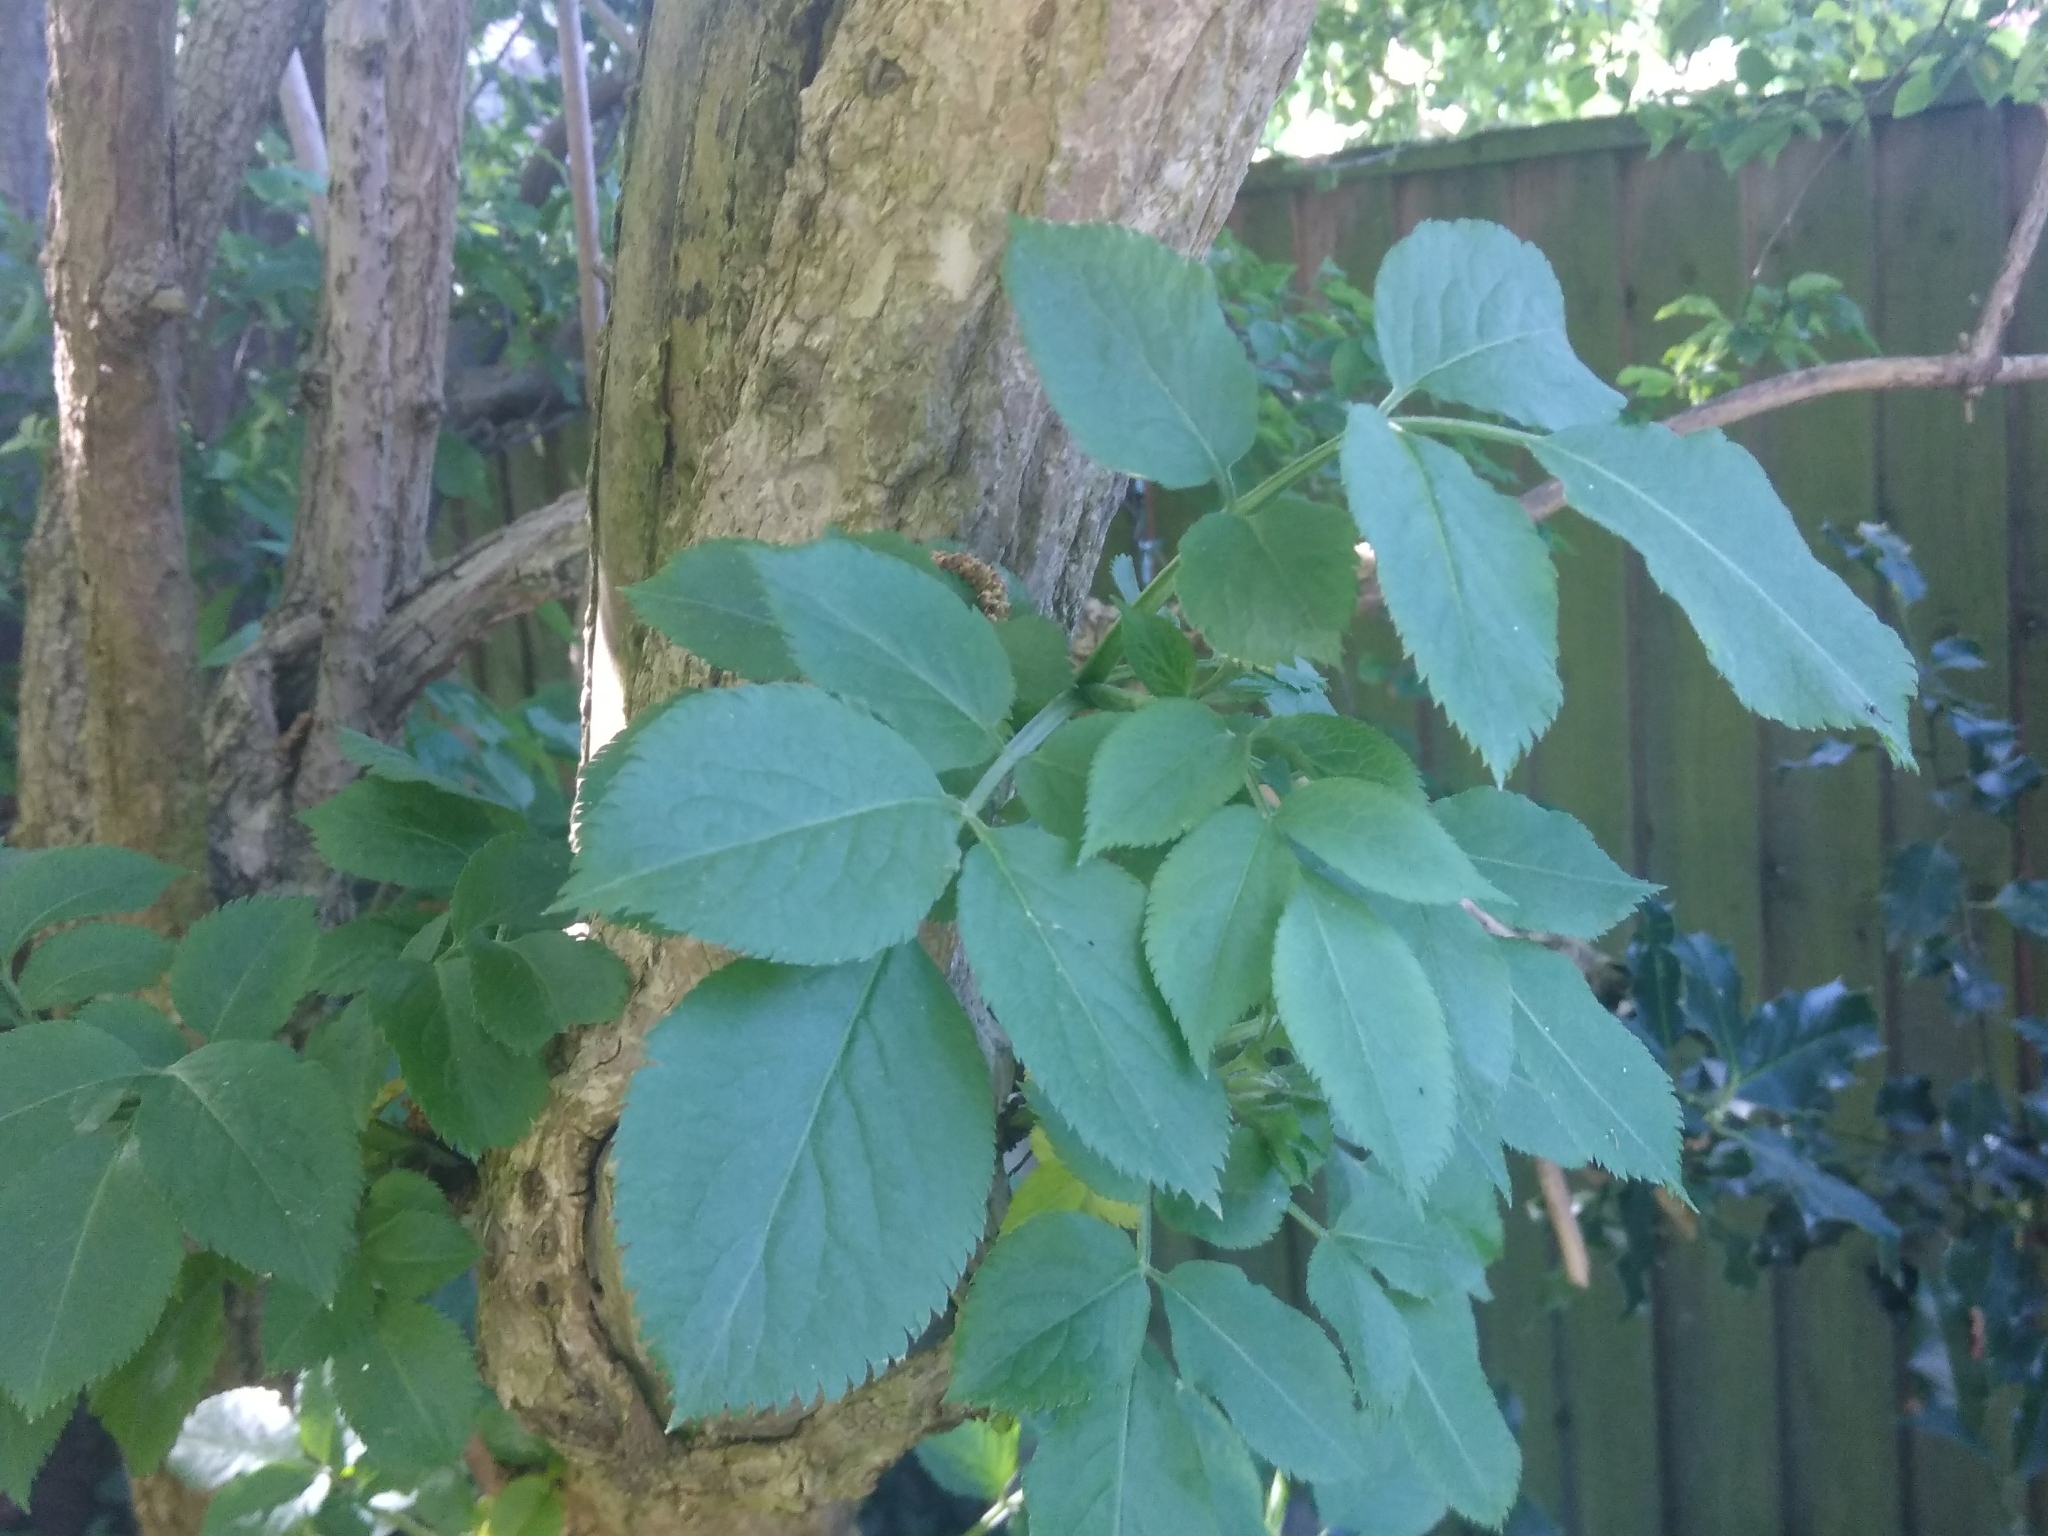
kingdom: Plantae
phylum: Tracheophyta
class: Magnoliopsida
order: Dipsacales
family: Viburnaceae
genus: Sambucus
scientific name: Sambucus nigra
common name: Elder
